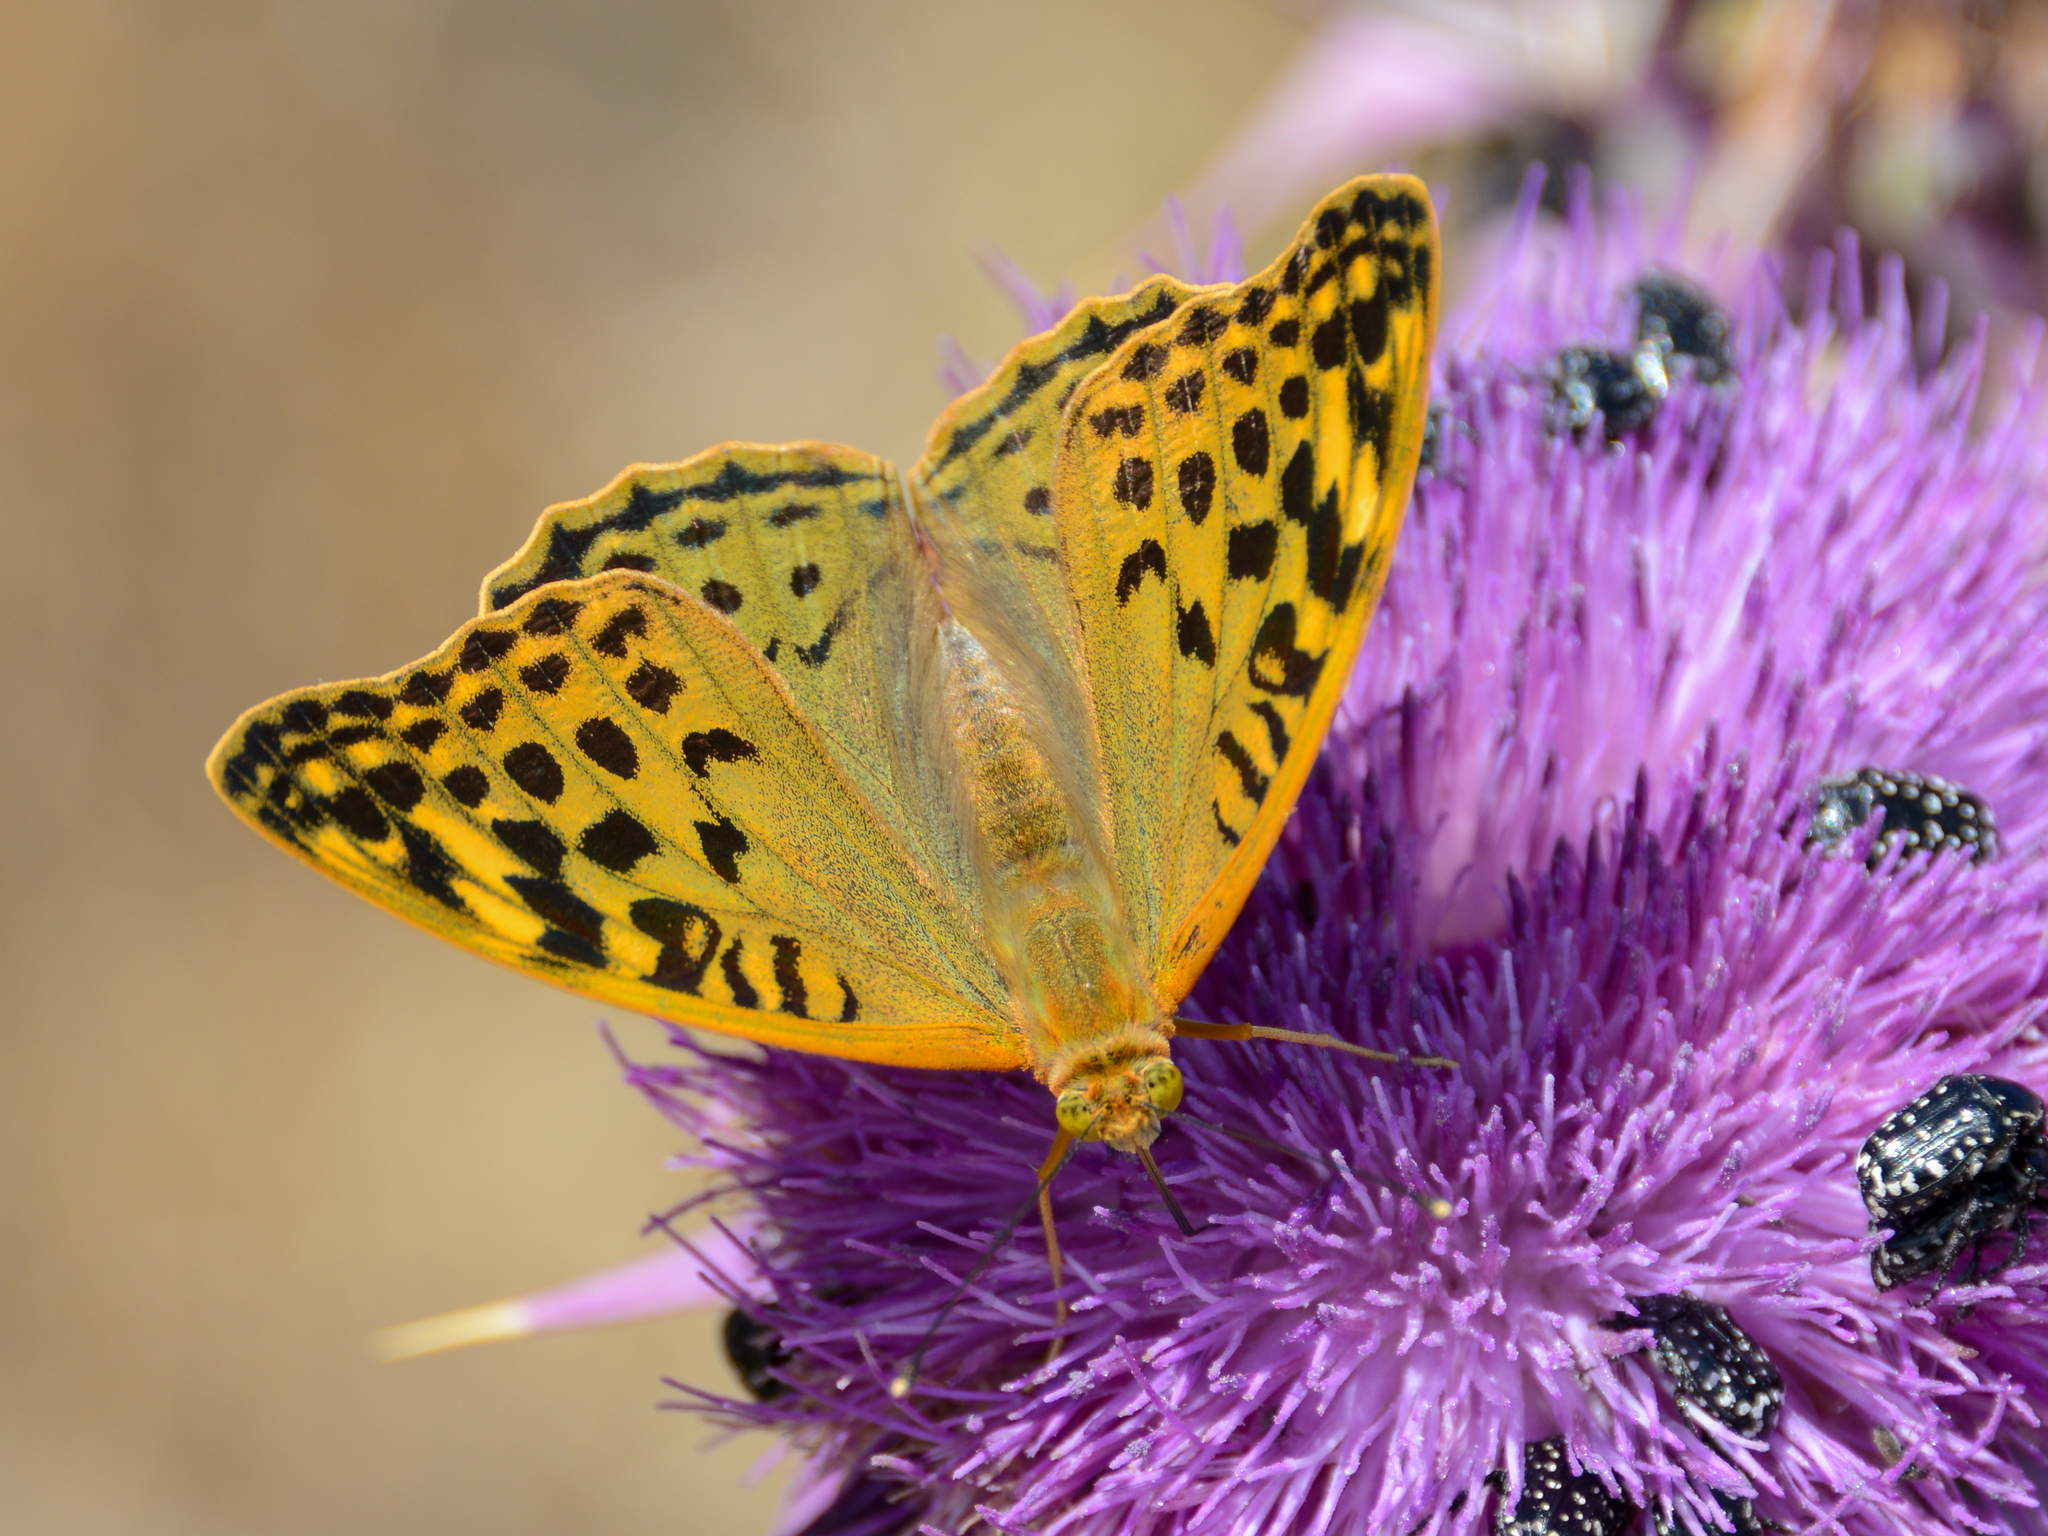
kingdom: Animalia
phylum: Arthropoda
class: Insecta
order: Lepidoptera
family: Nymphalidae
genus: Damora
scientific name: Damora pandora
